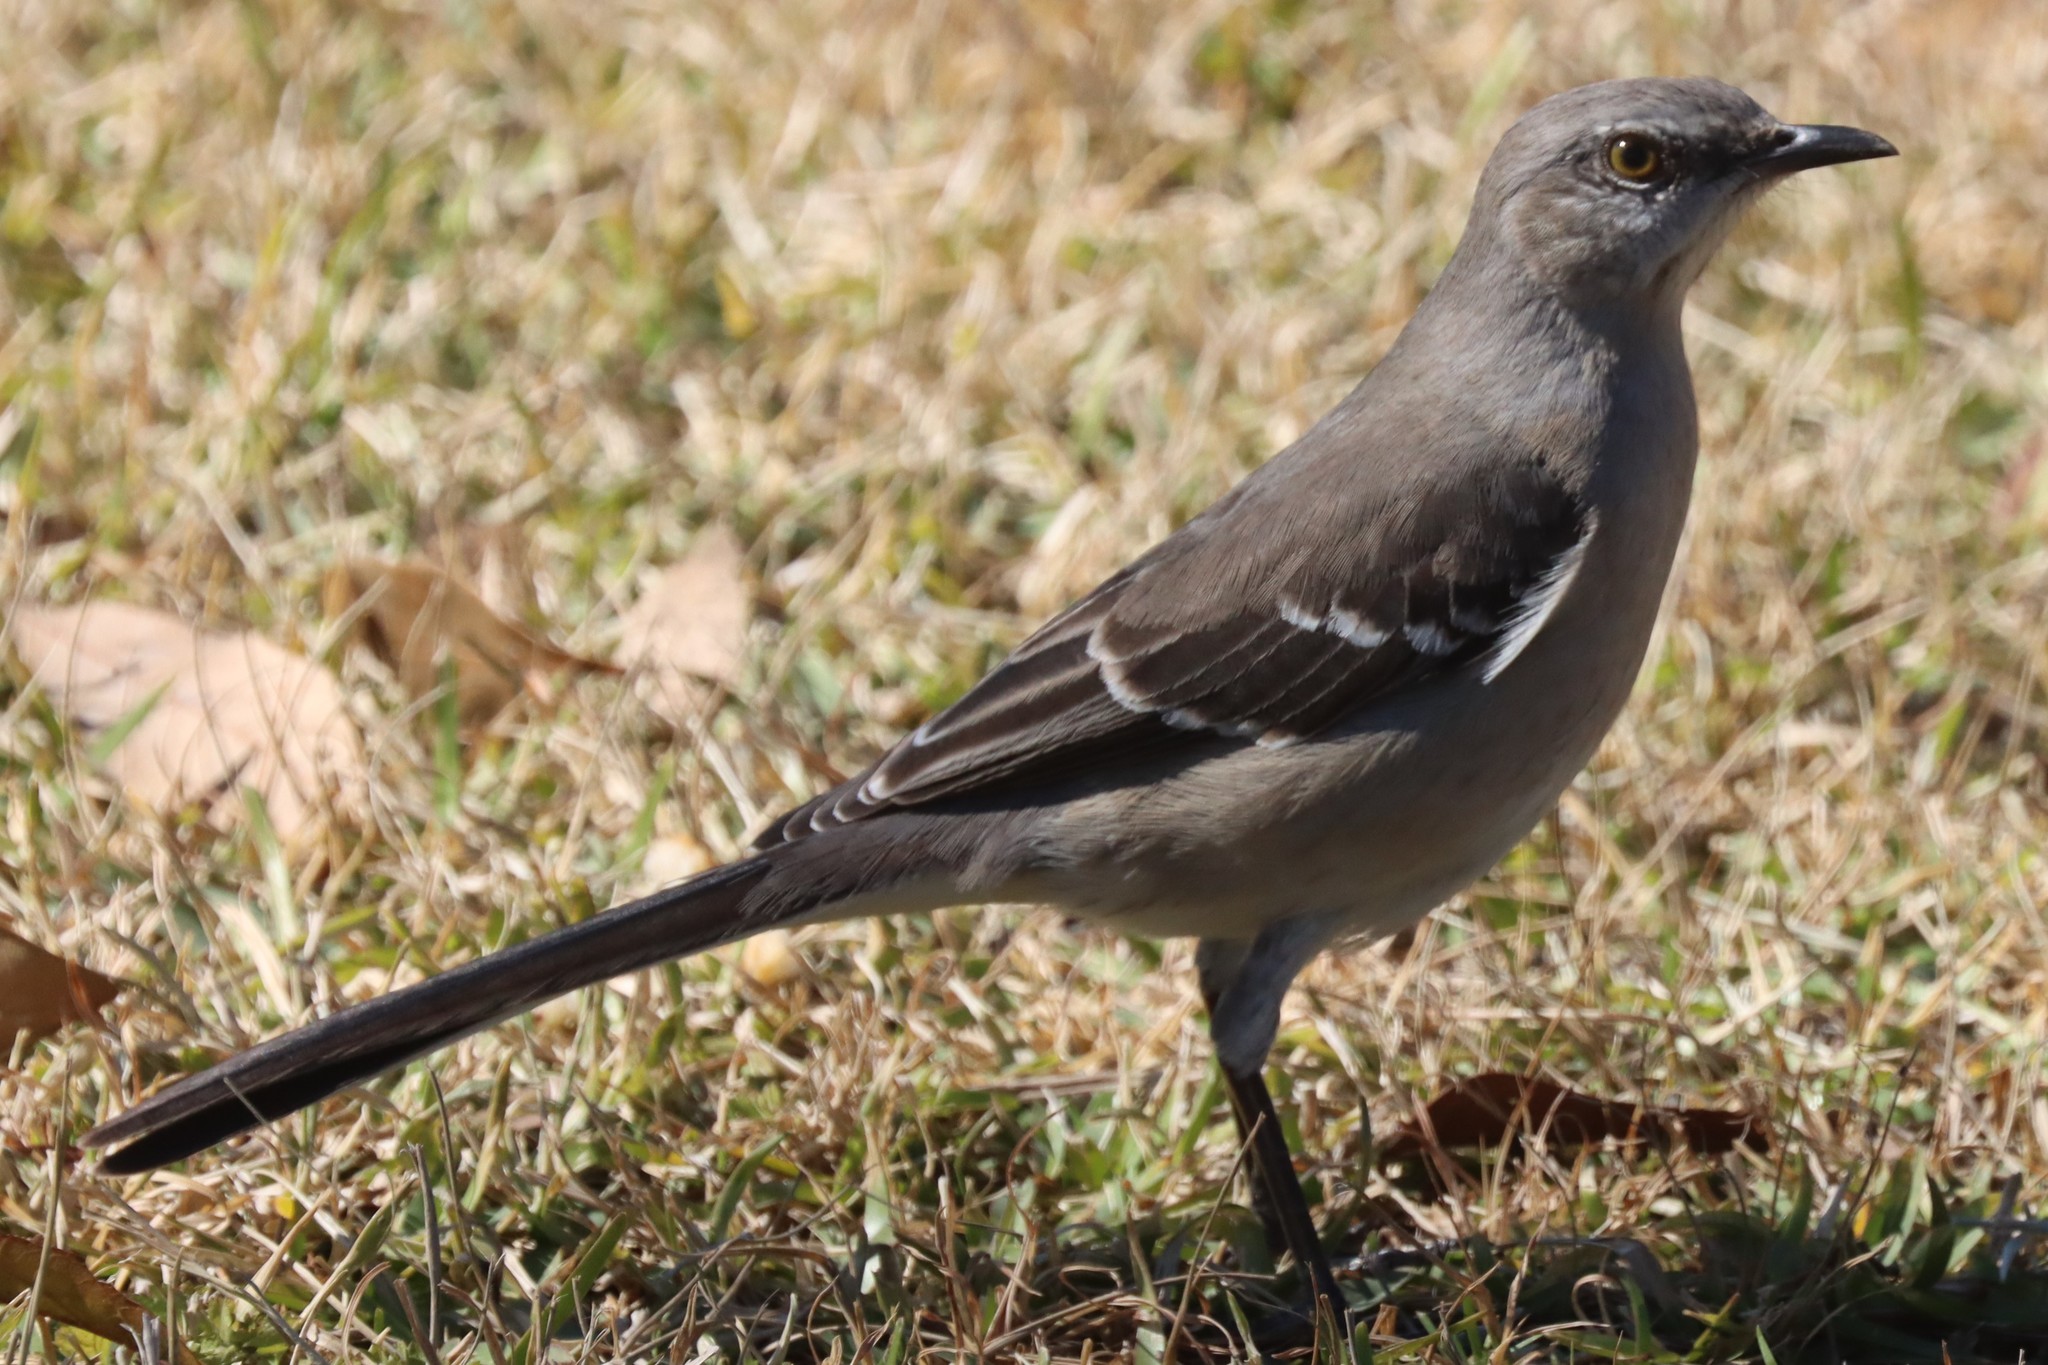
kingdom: Animalia
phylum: Chordata
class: Aves
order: Passeriformes
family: Mimidae
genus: Mimus
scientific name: Mimus polyglottos
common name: Northern mockingbird
